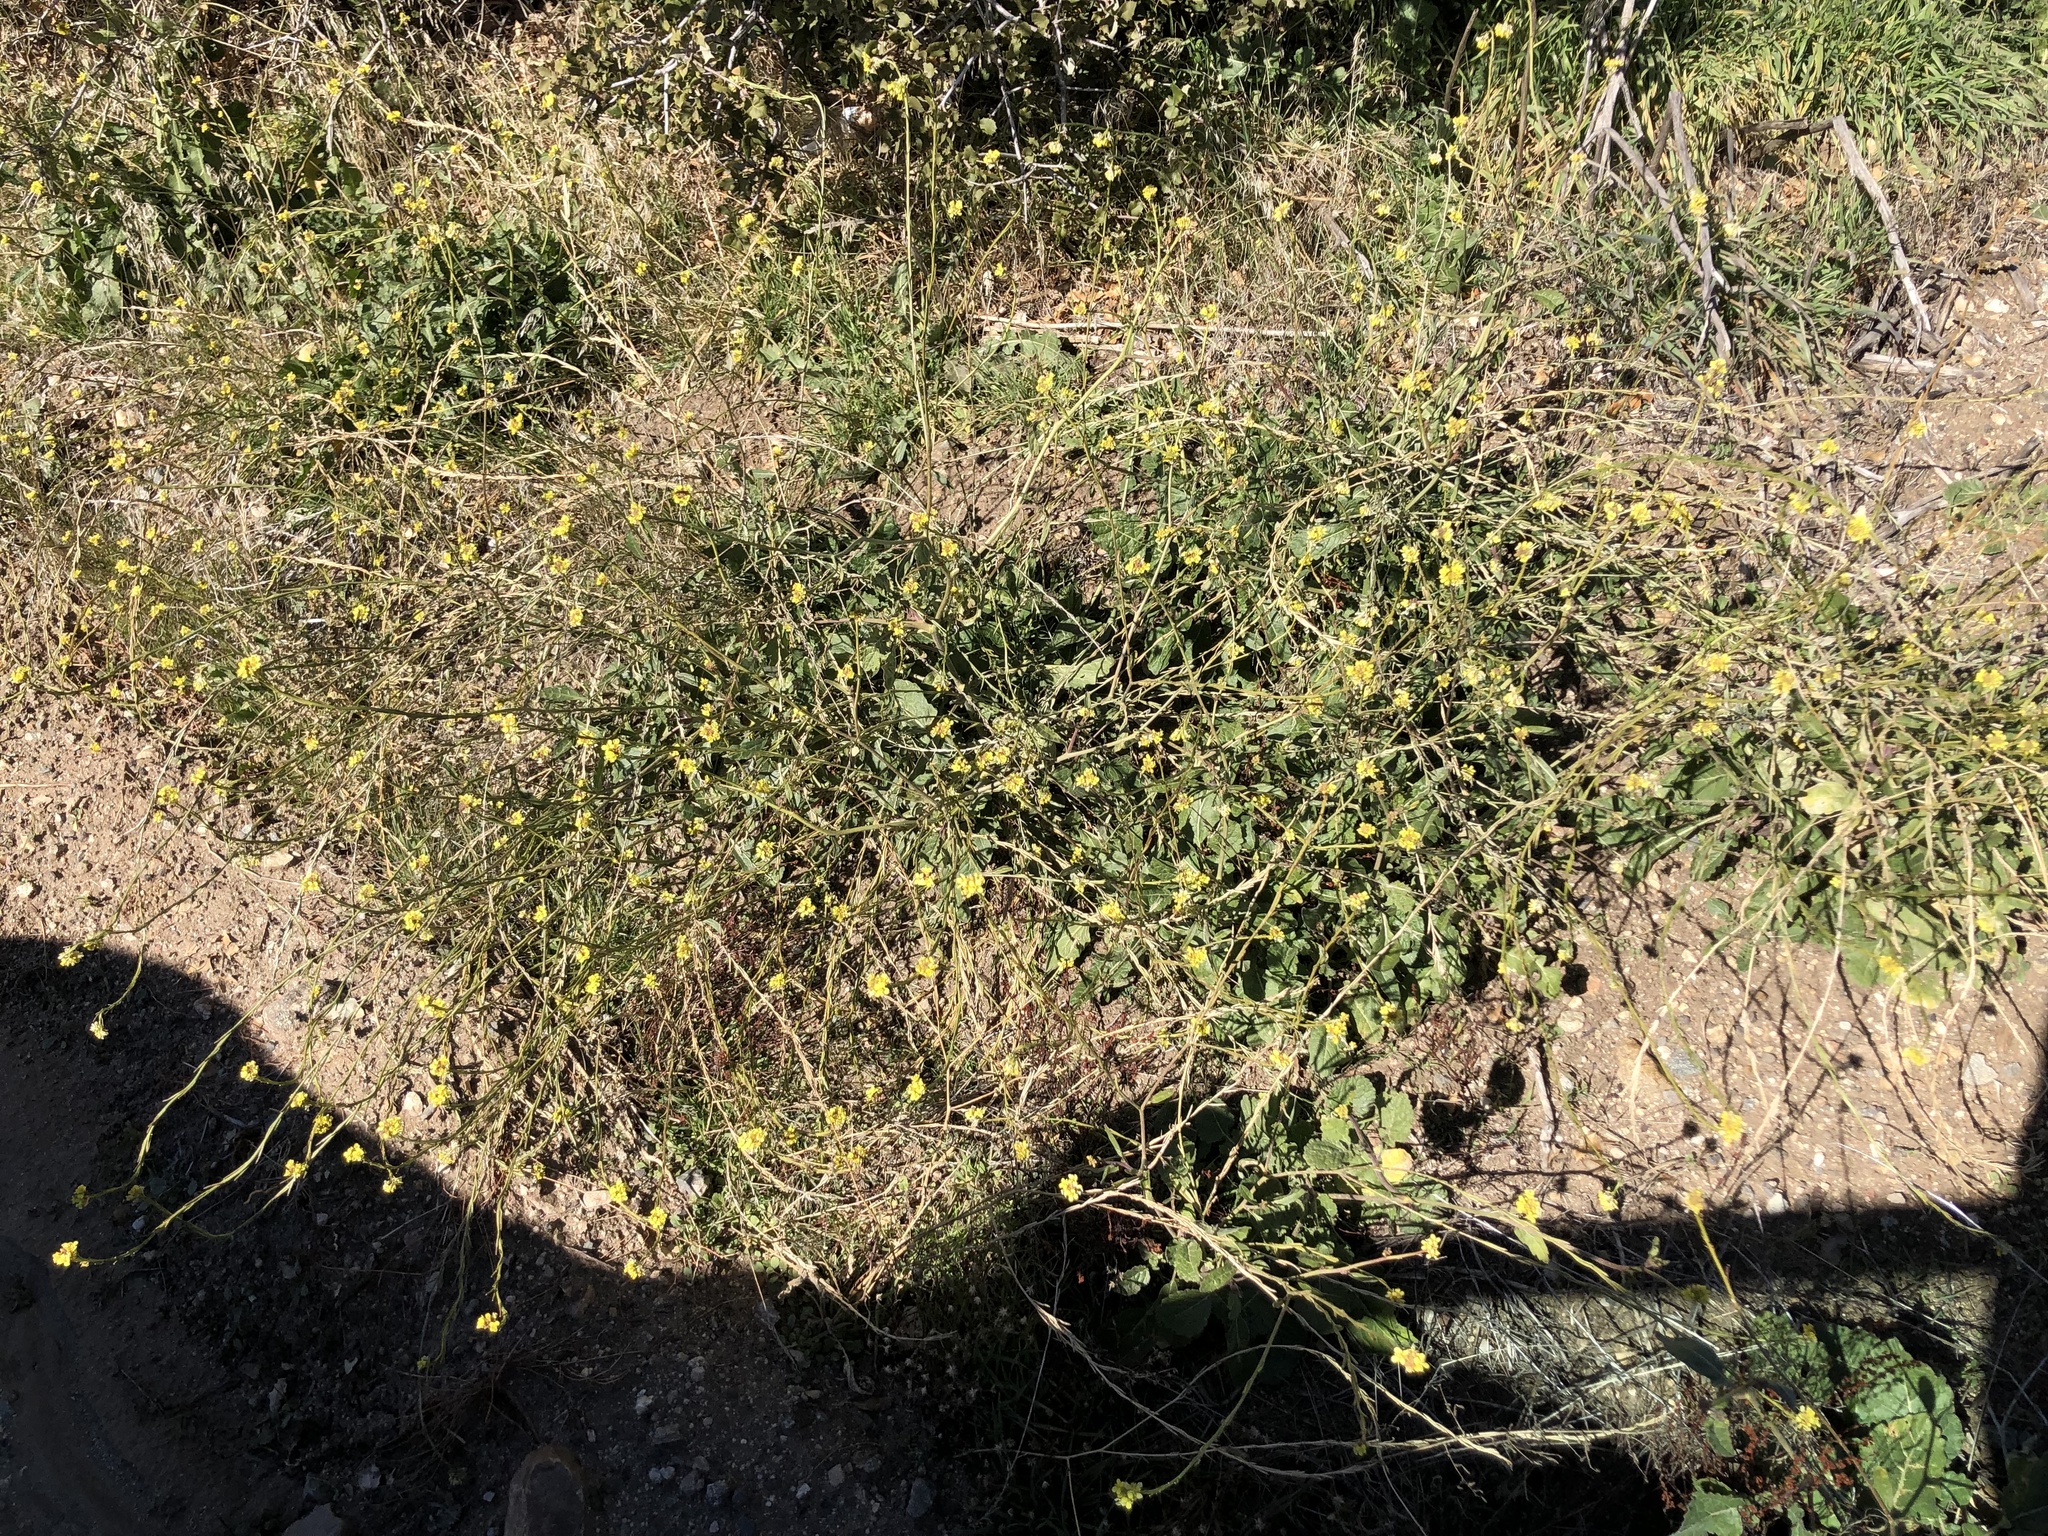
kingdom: Plantae
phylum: Tracheophyta
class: Magnoliopsida
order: Brassicales
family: Brassicaceae
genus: Hirschfeldia
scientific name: Hirschfeldia incana
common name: Hoary mustard
